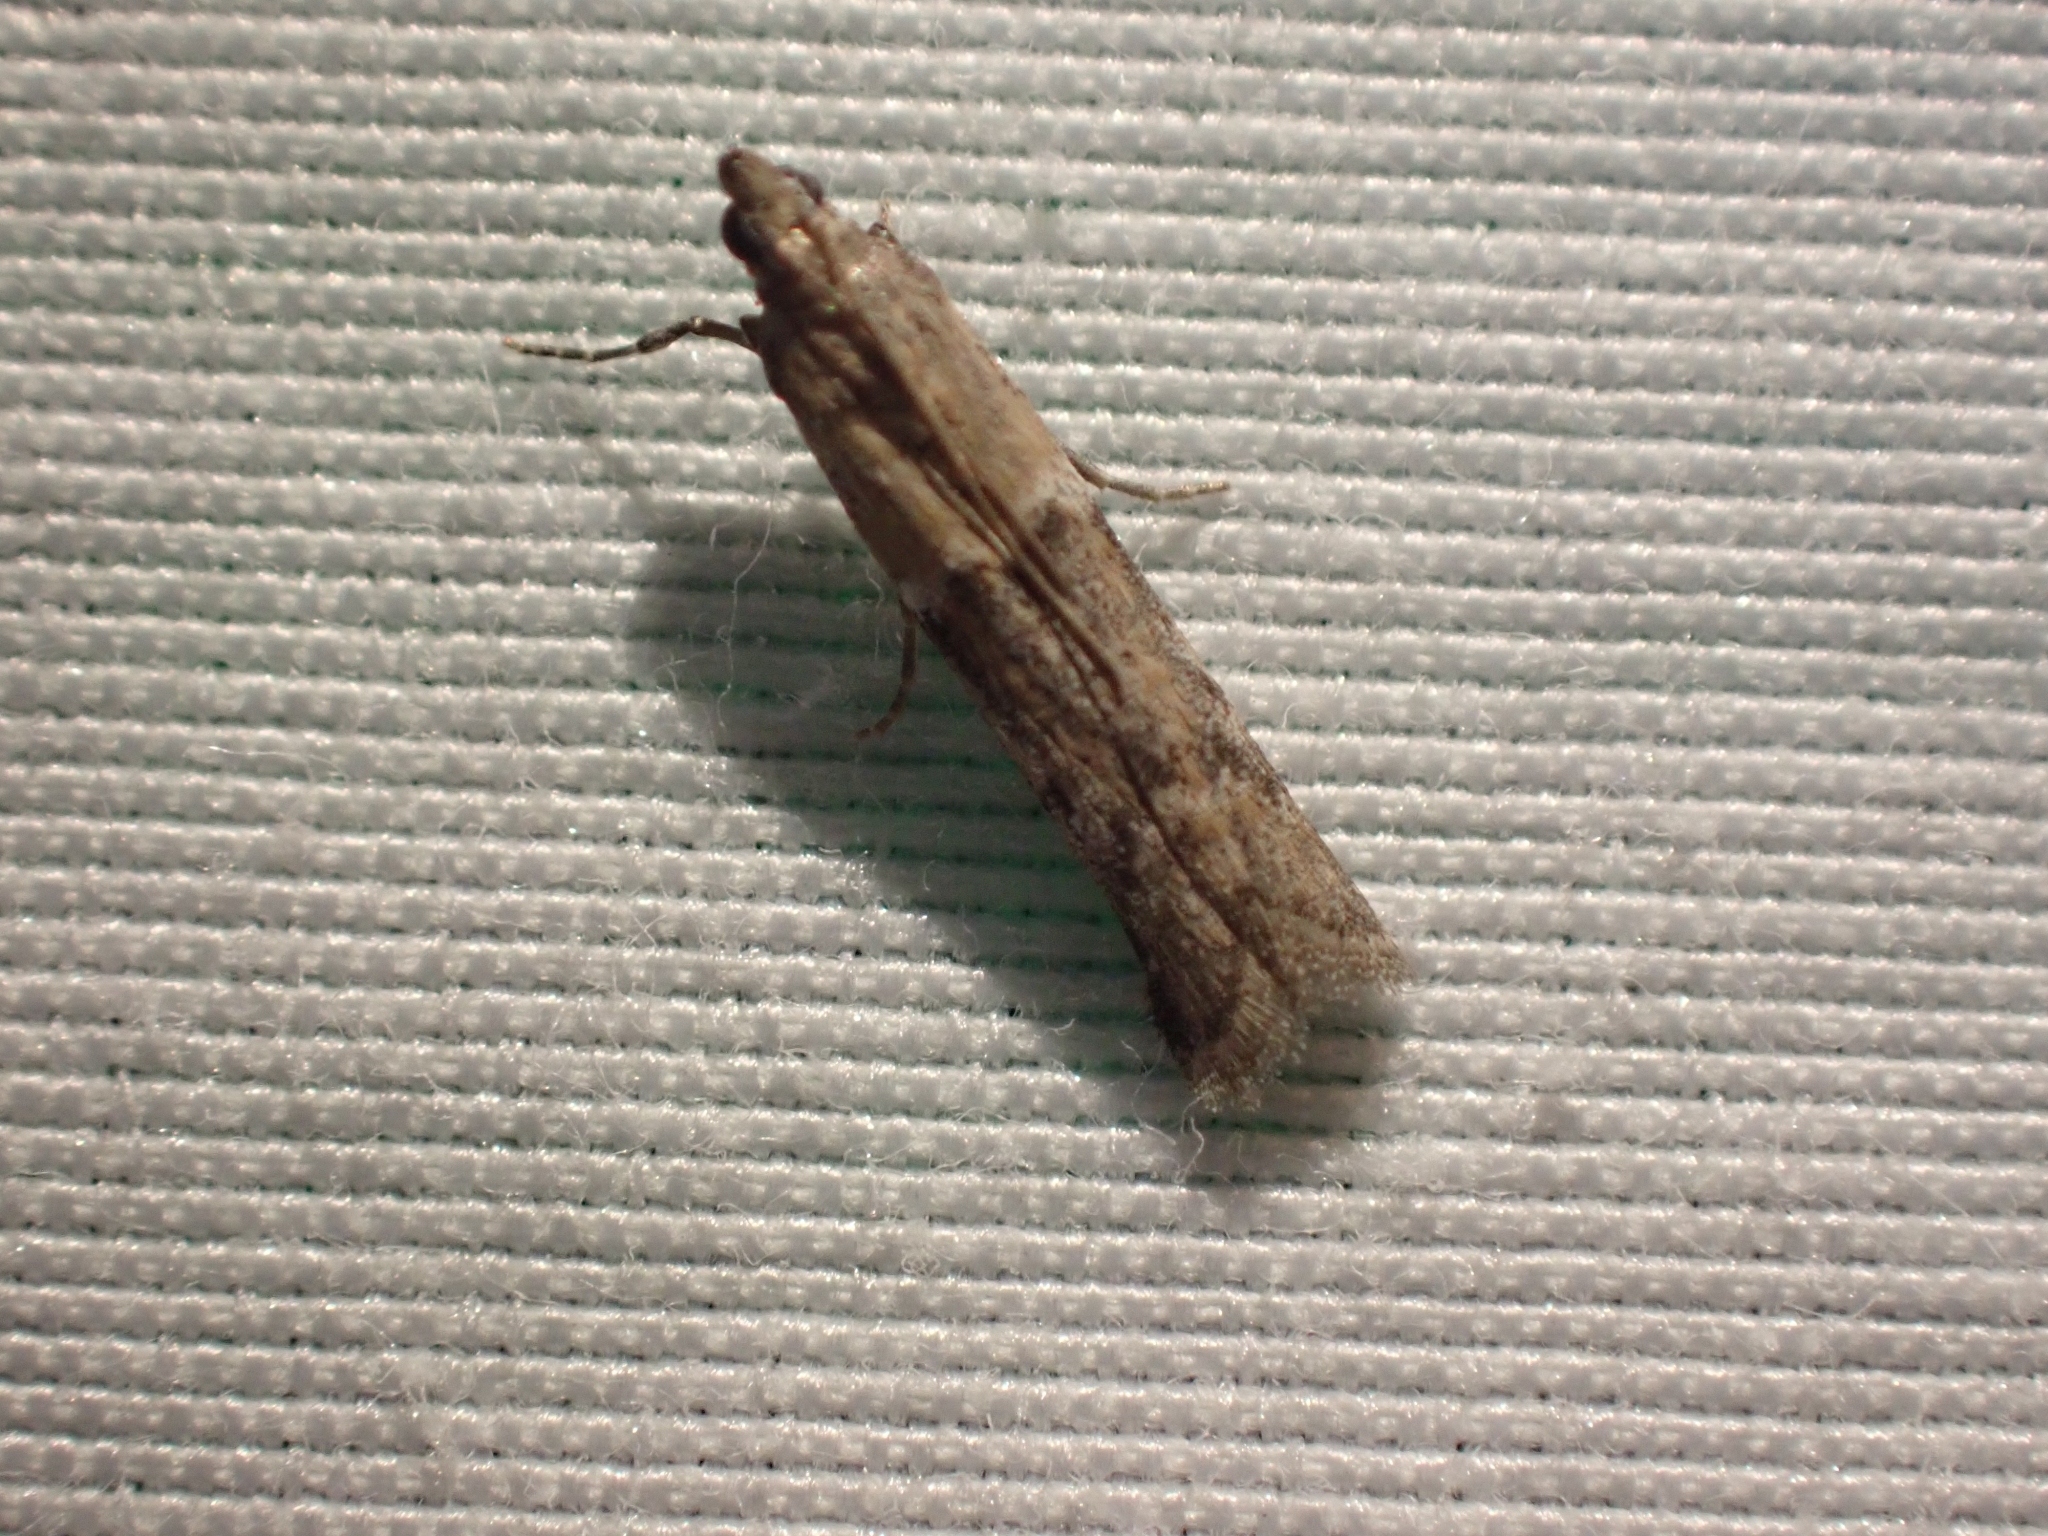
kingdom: Animalia
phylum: Arthropoda
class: Insecta
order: Lepidoptera
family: Pyralidae
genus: Ephestiodes
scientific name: Ephestiodes gilvescentella
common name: Moth
